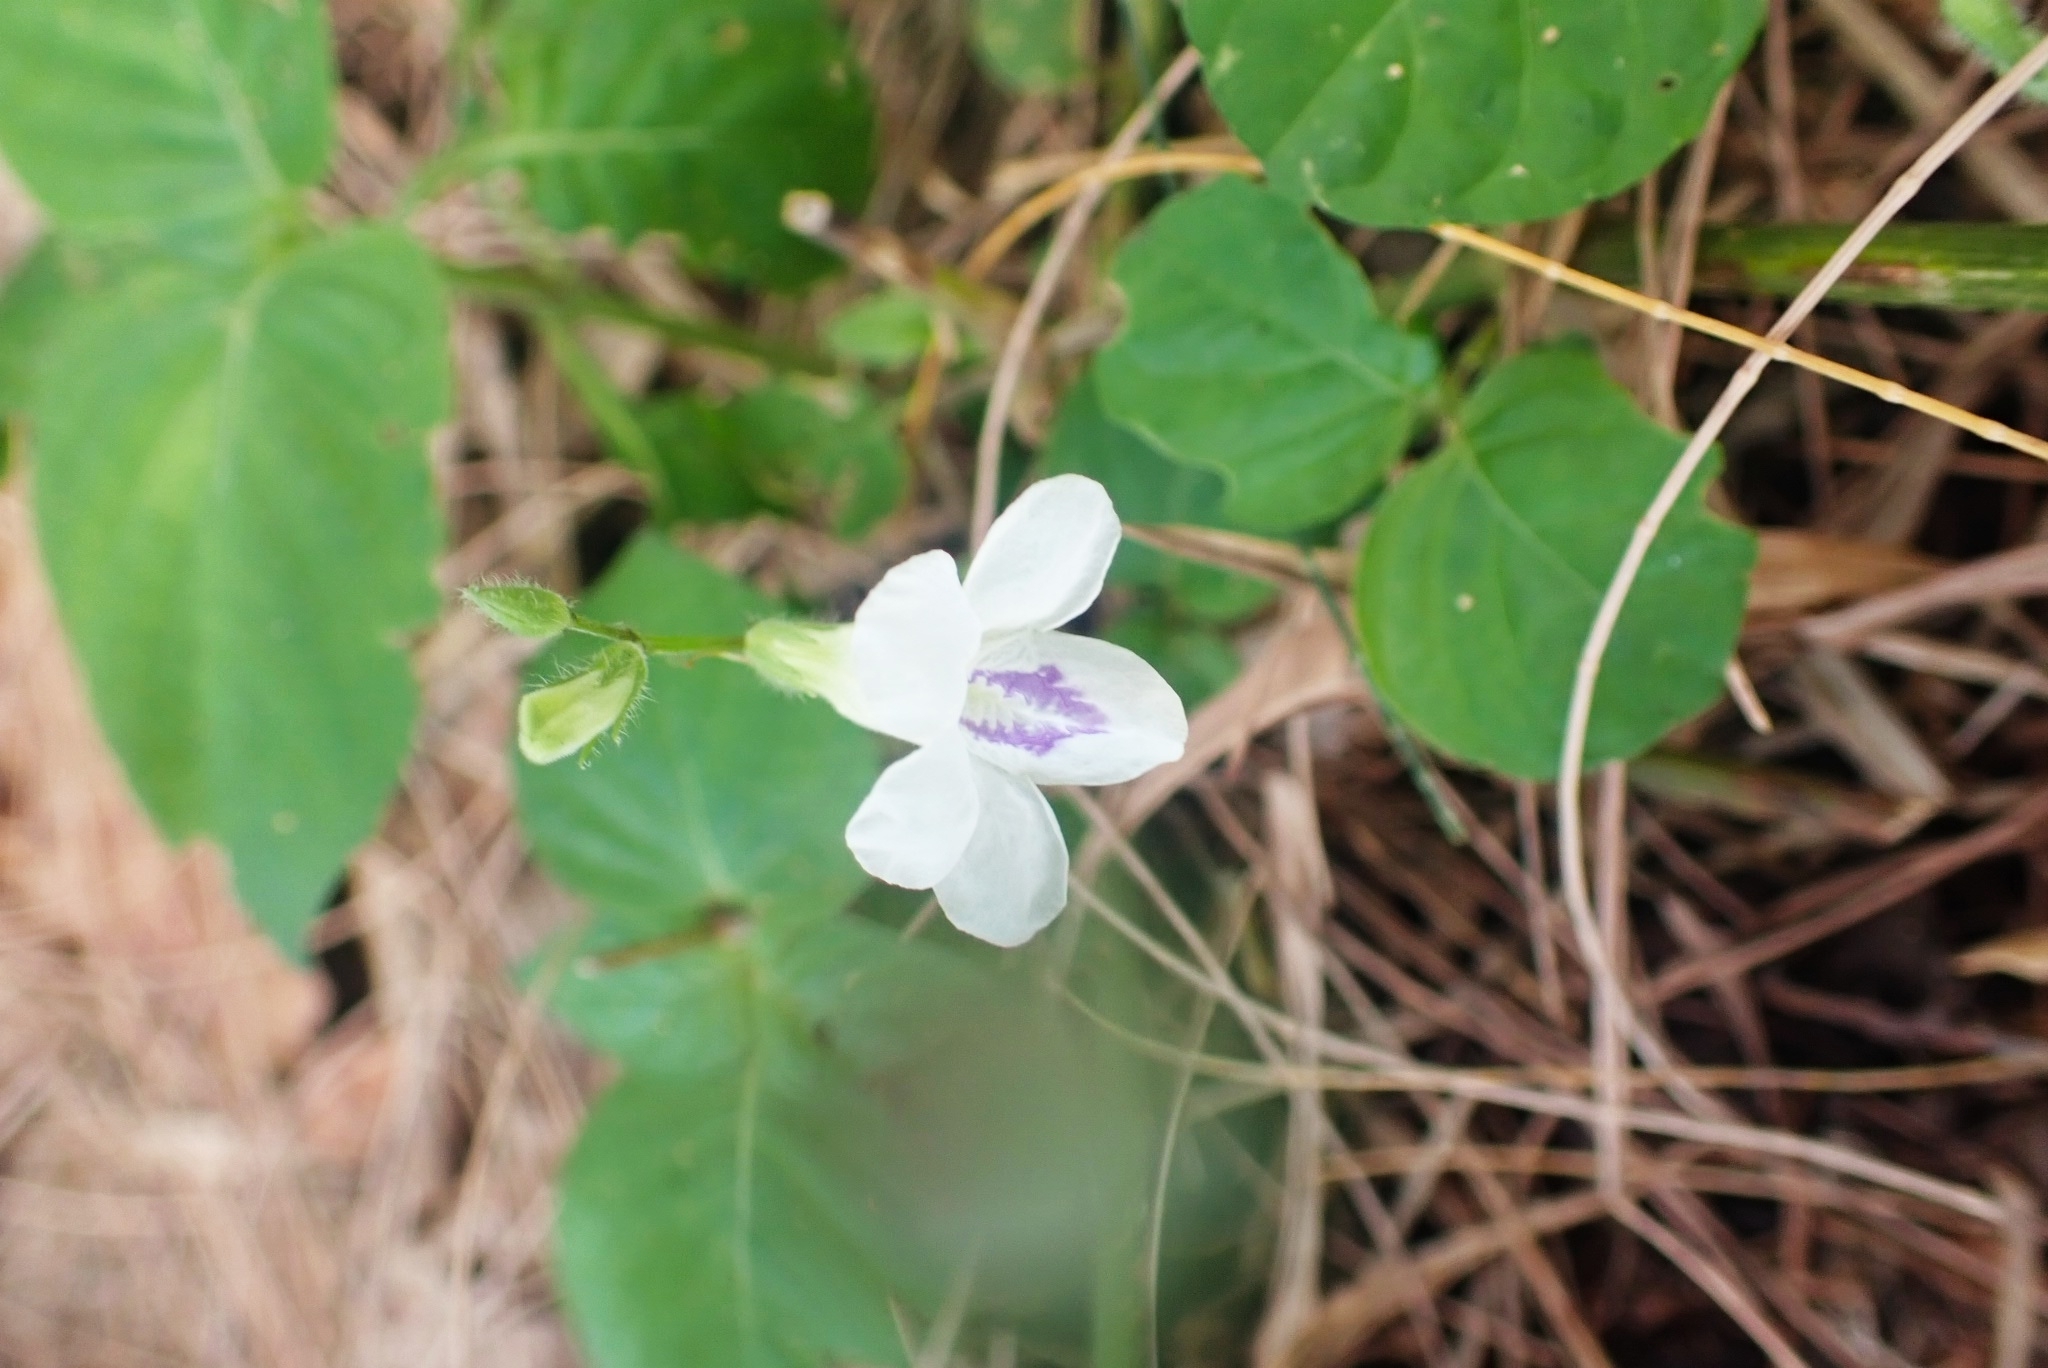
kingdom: Plantae
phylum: Tracheophyta
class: Magnoliopsida
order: Lamiales
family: Acanthaceae
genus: Asystasia
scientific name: Asystasia intrusa
